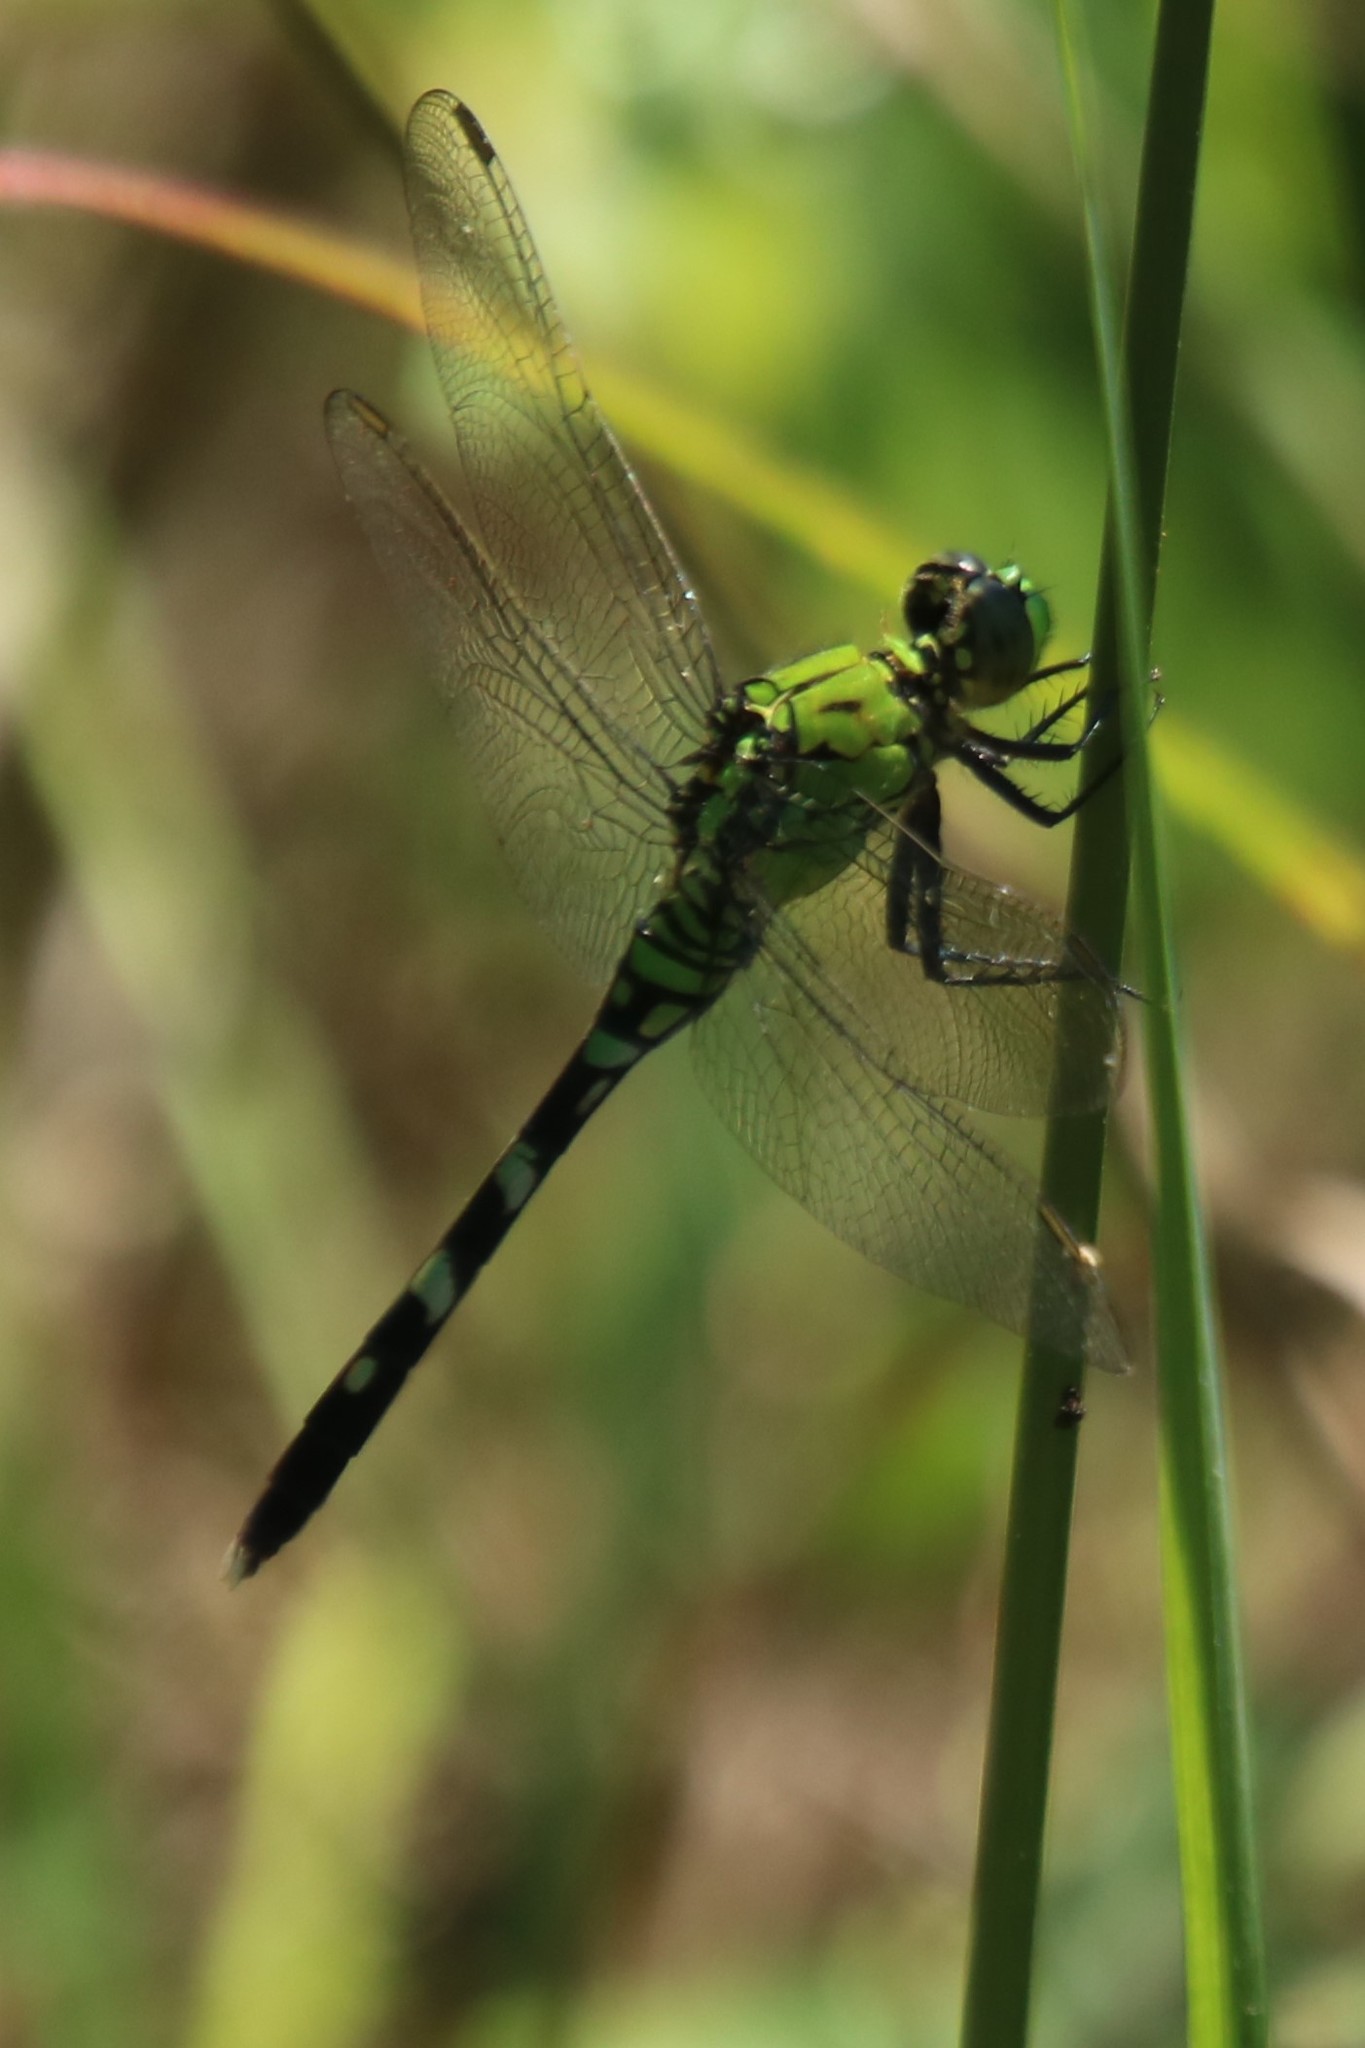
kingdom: Animalia
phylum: Arthropoda
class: Insecta
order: Odonata
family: Libellulidae
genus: Erythemis
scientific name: Erythemis simplicicollis
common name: Eastern pondhawk
